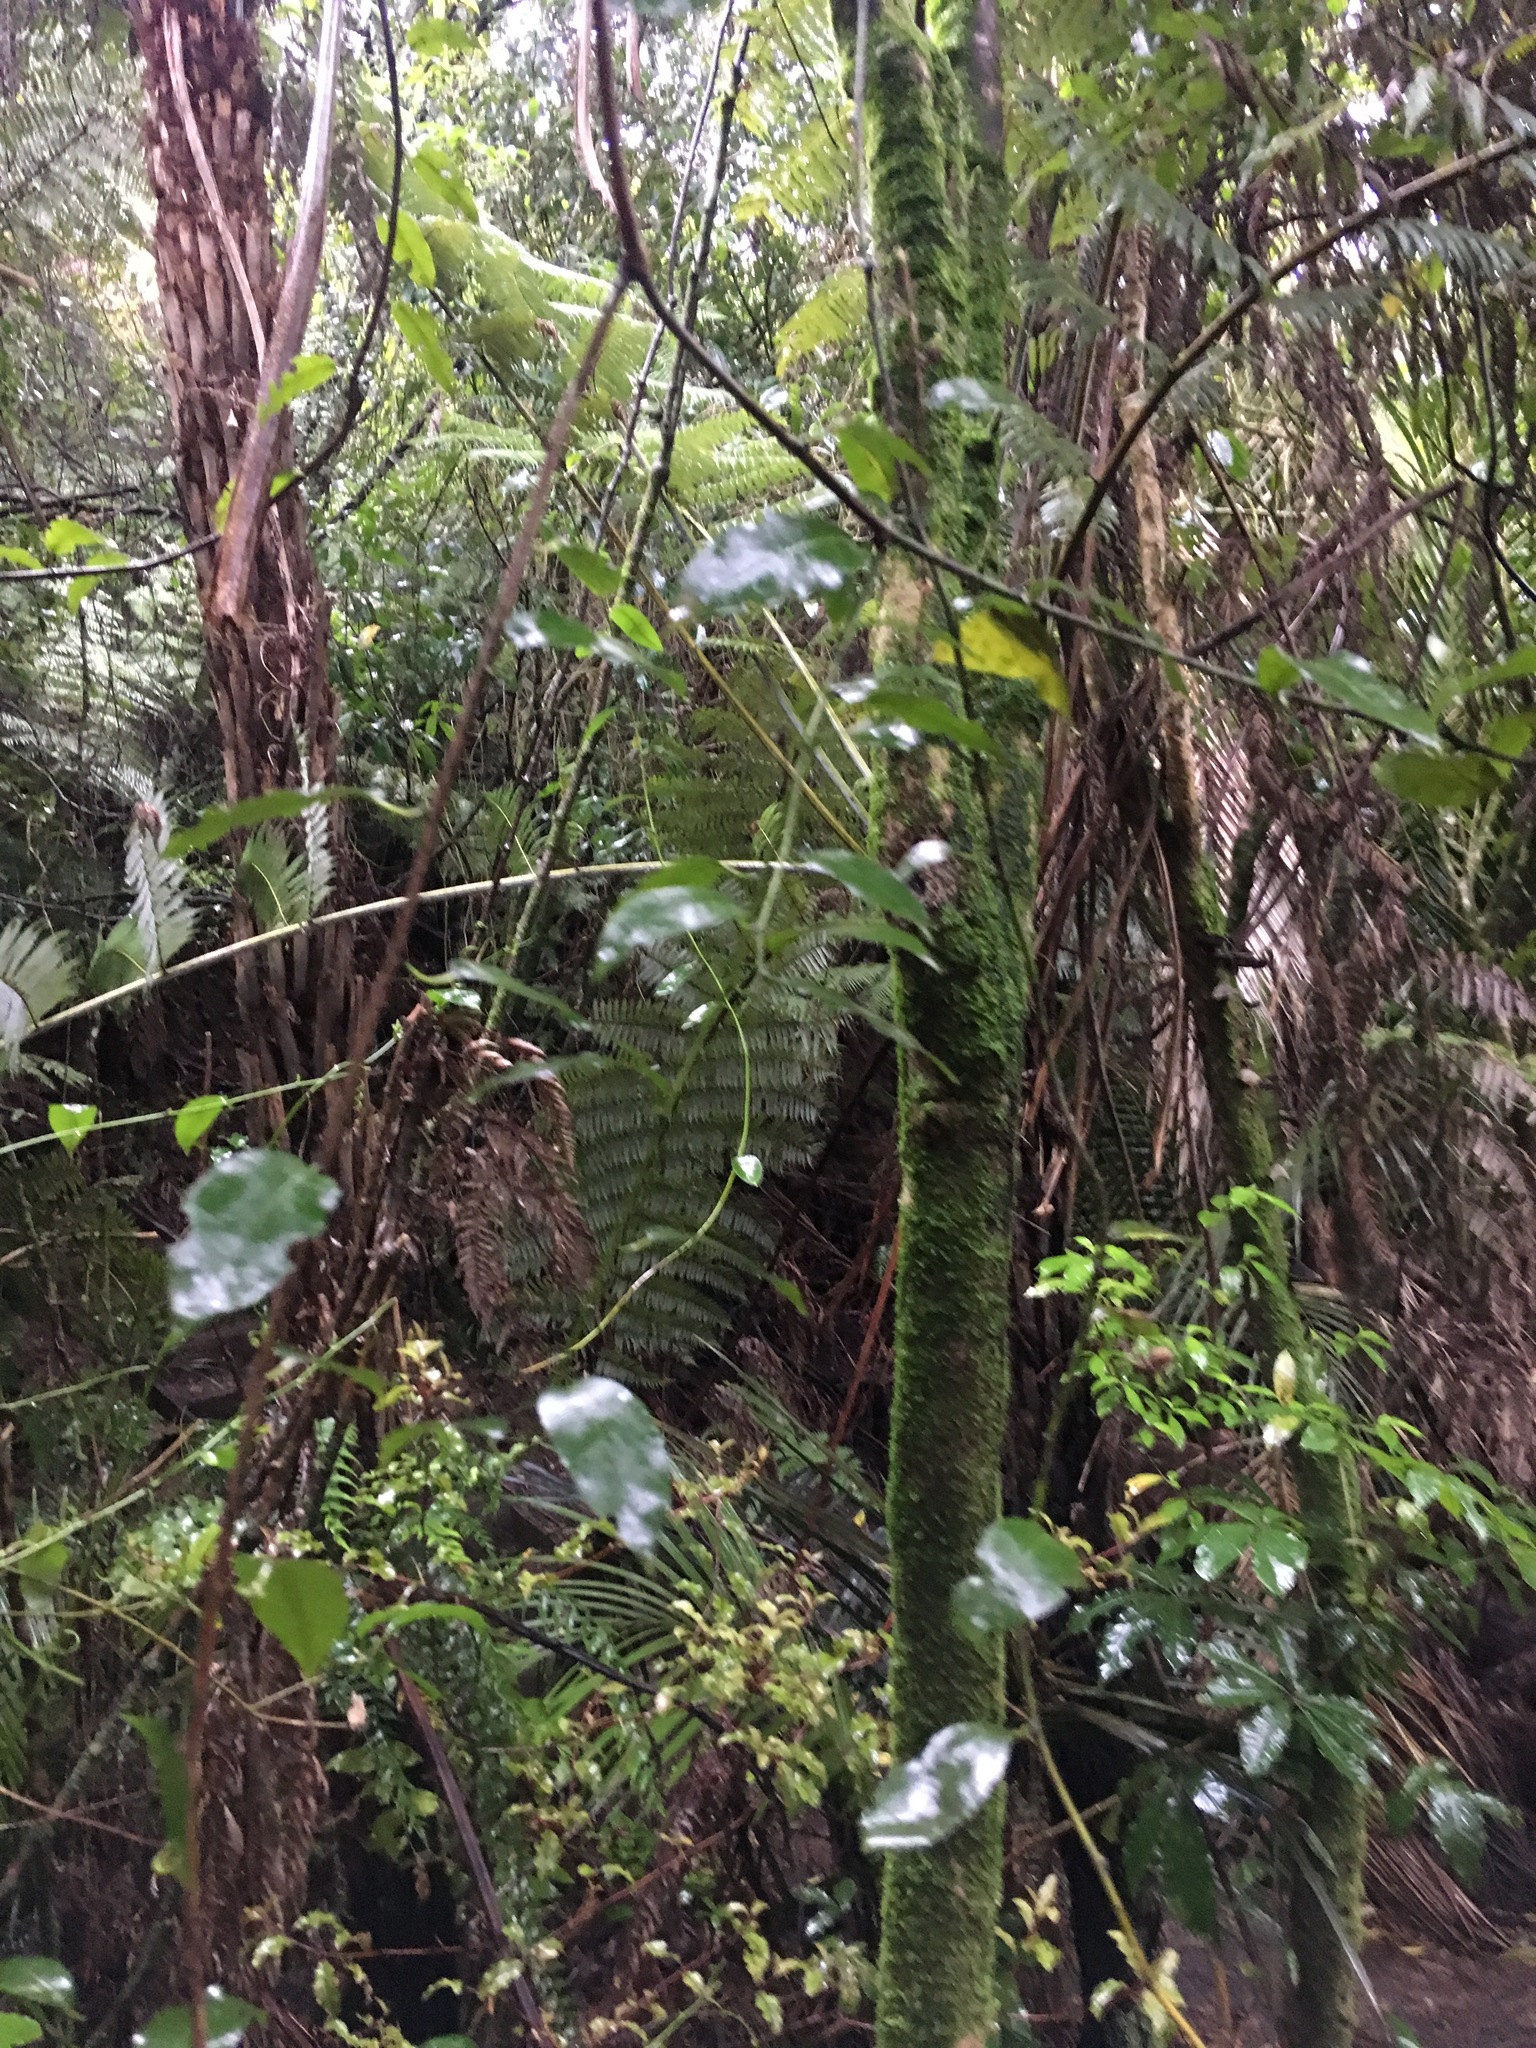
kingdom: Plantae
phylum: Tracheophyta
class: Magnoliopsida
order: Malpighiales
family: Passifloraceae
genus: Passiflora
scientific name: Passiflora tetrandra
